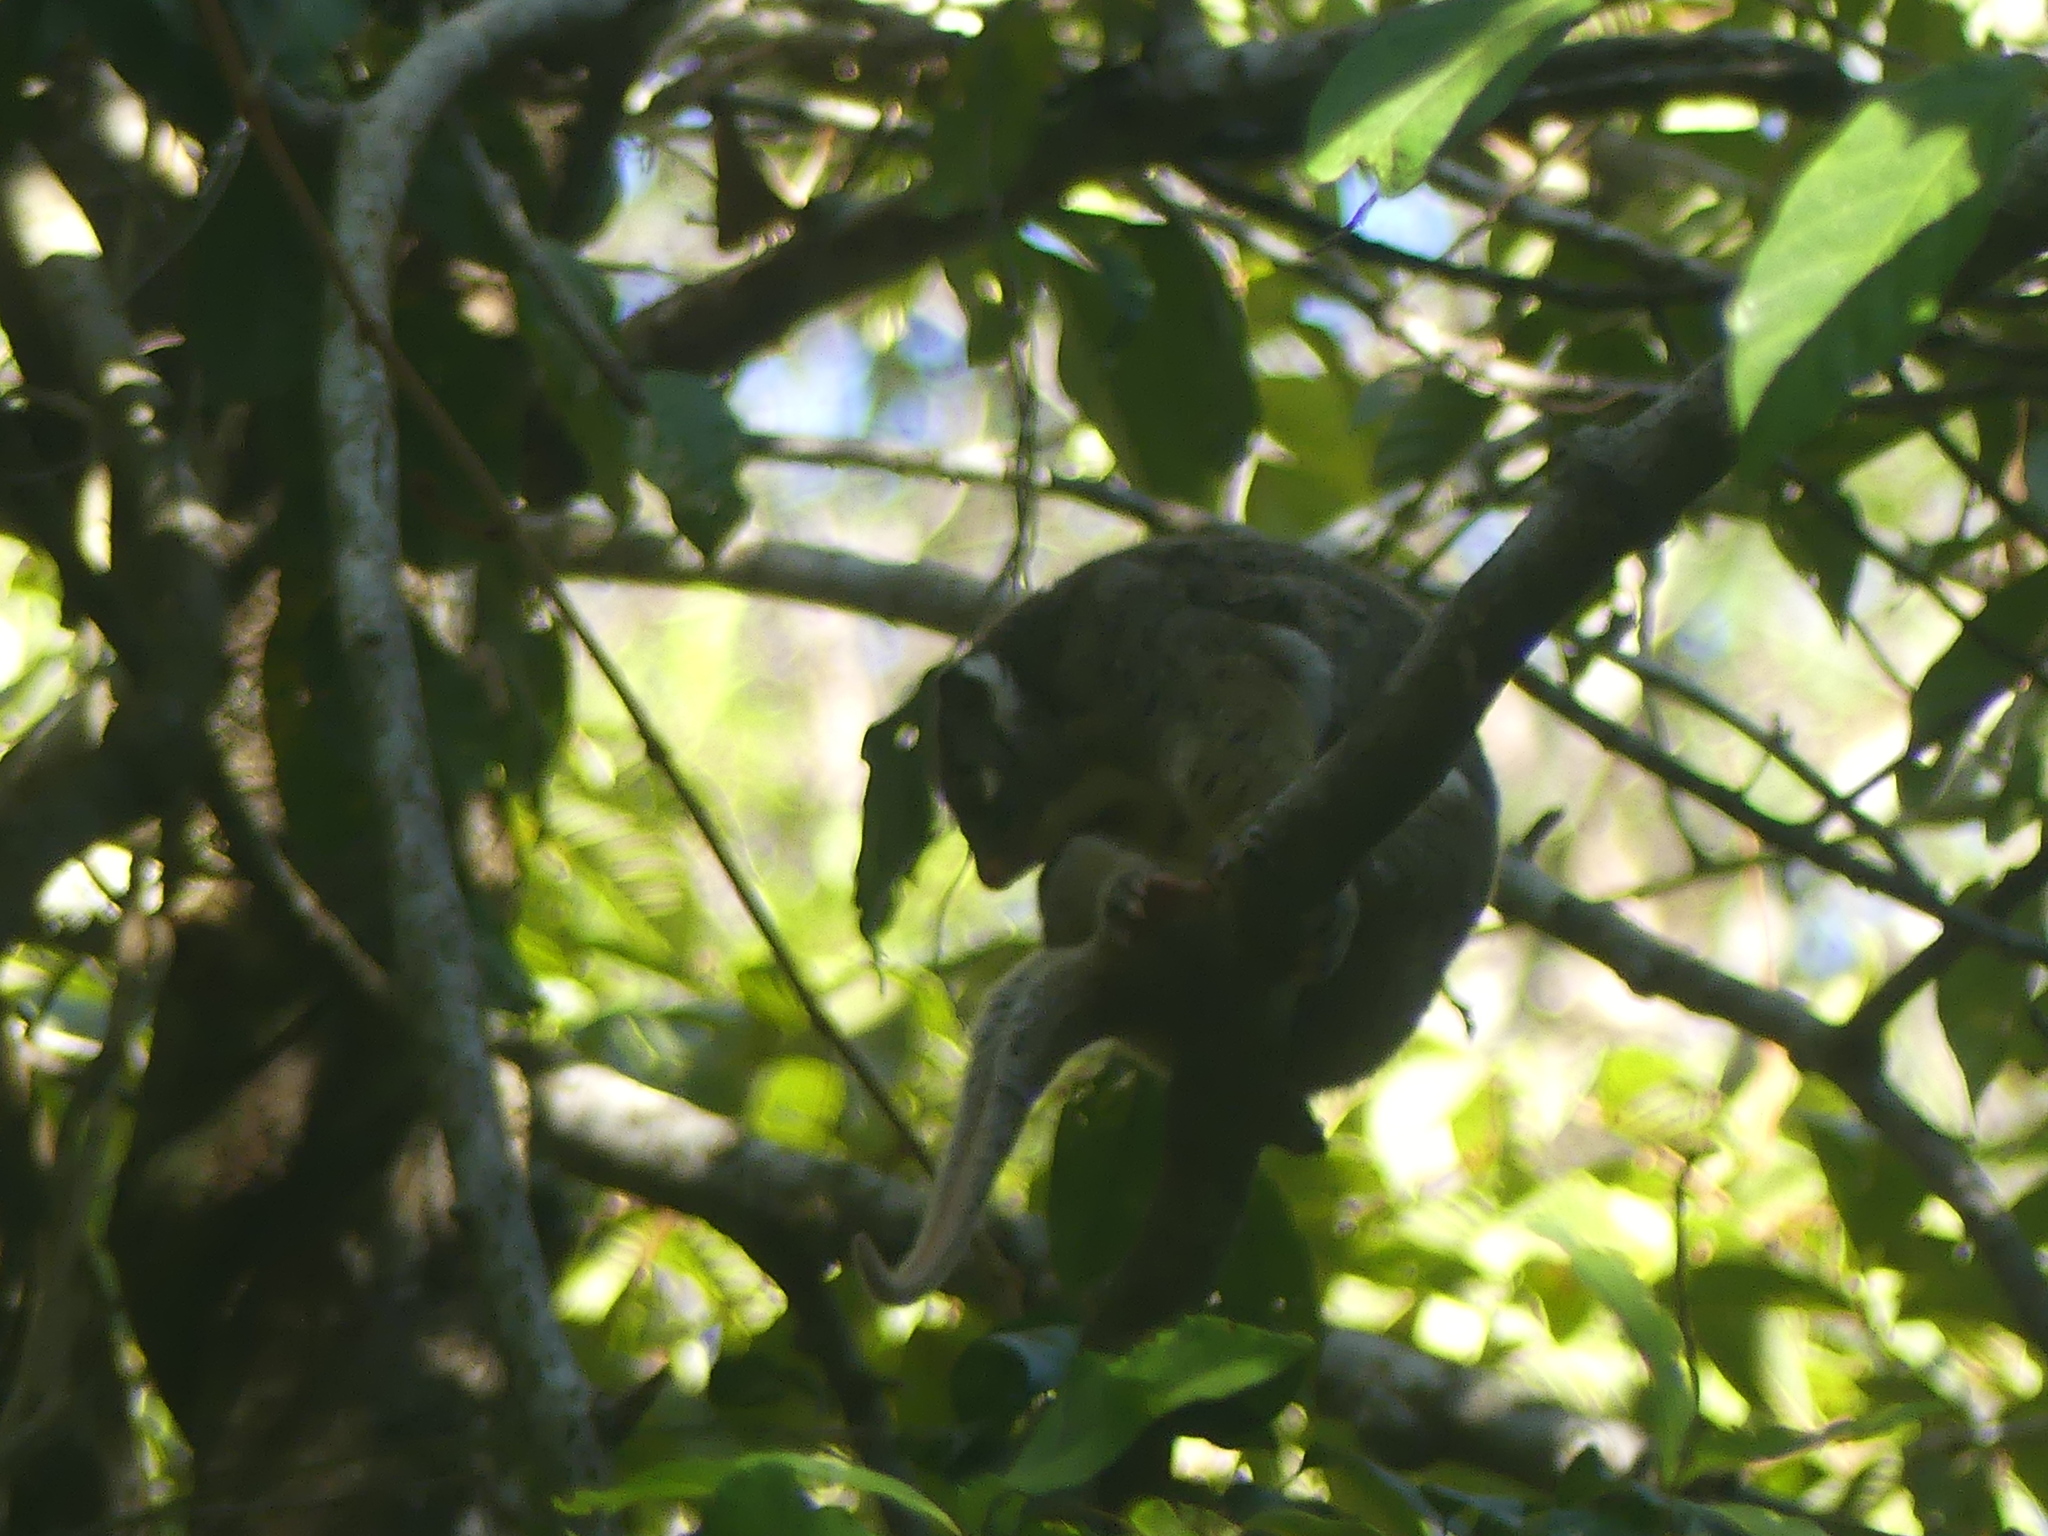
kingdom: Animalia
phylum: Chordata
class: Mammalia
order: Diprotodontia
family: Pseudocheiridae
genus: Pseudochirops
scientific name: Pseudochirops archeri
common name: Green ringtail
